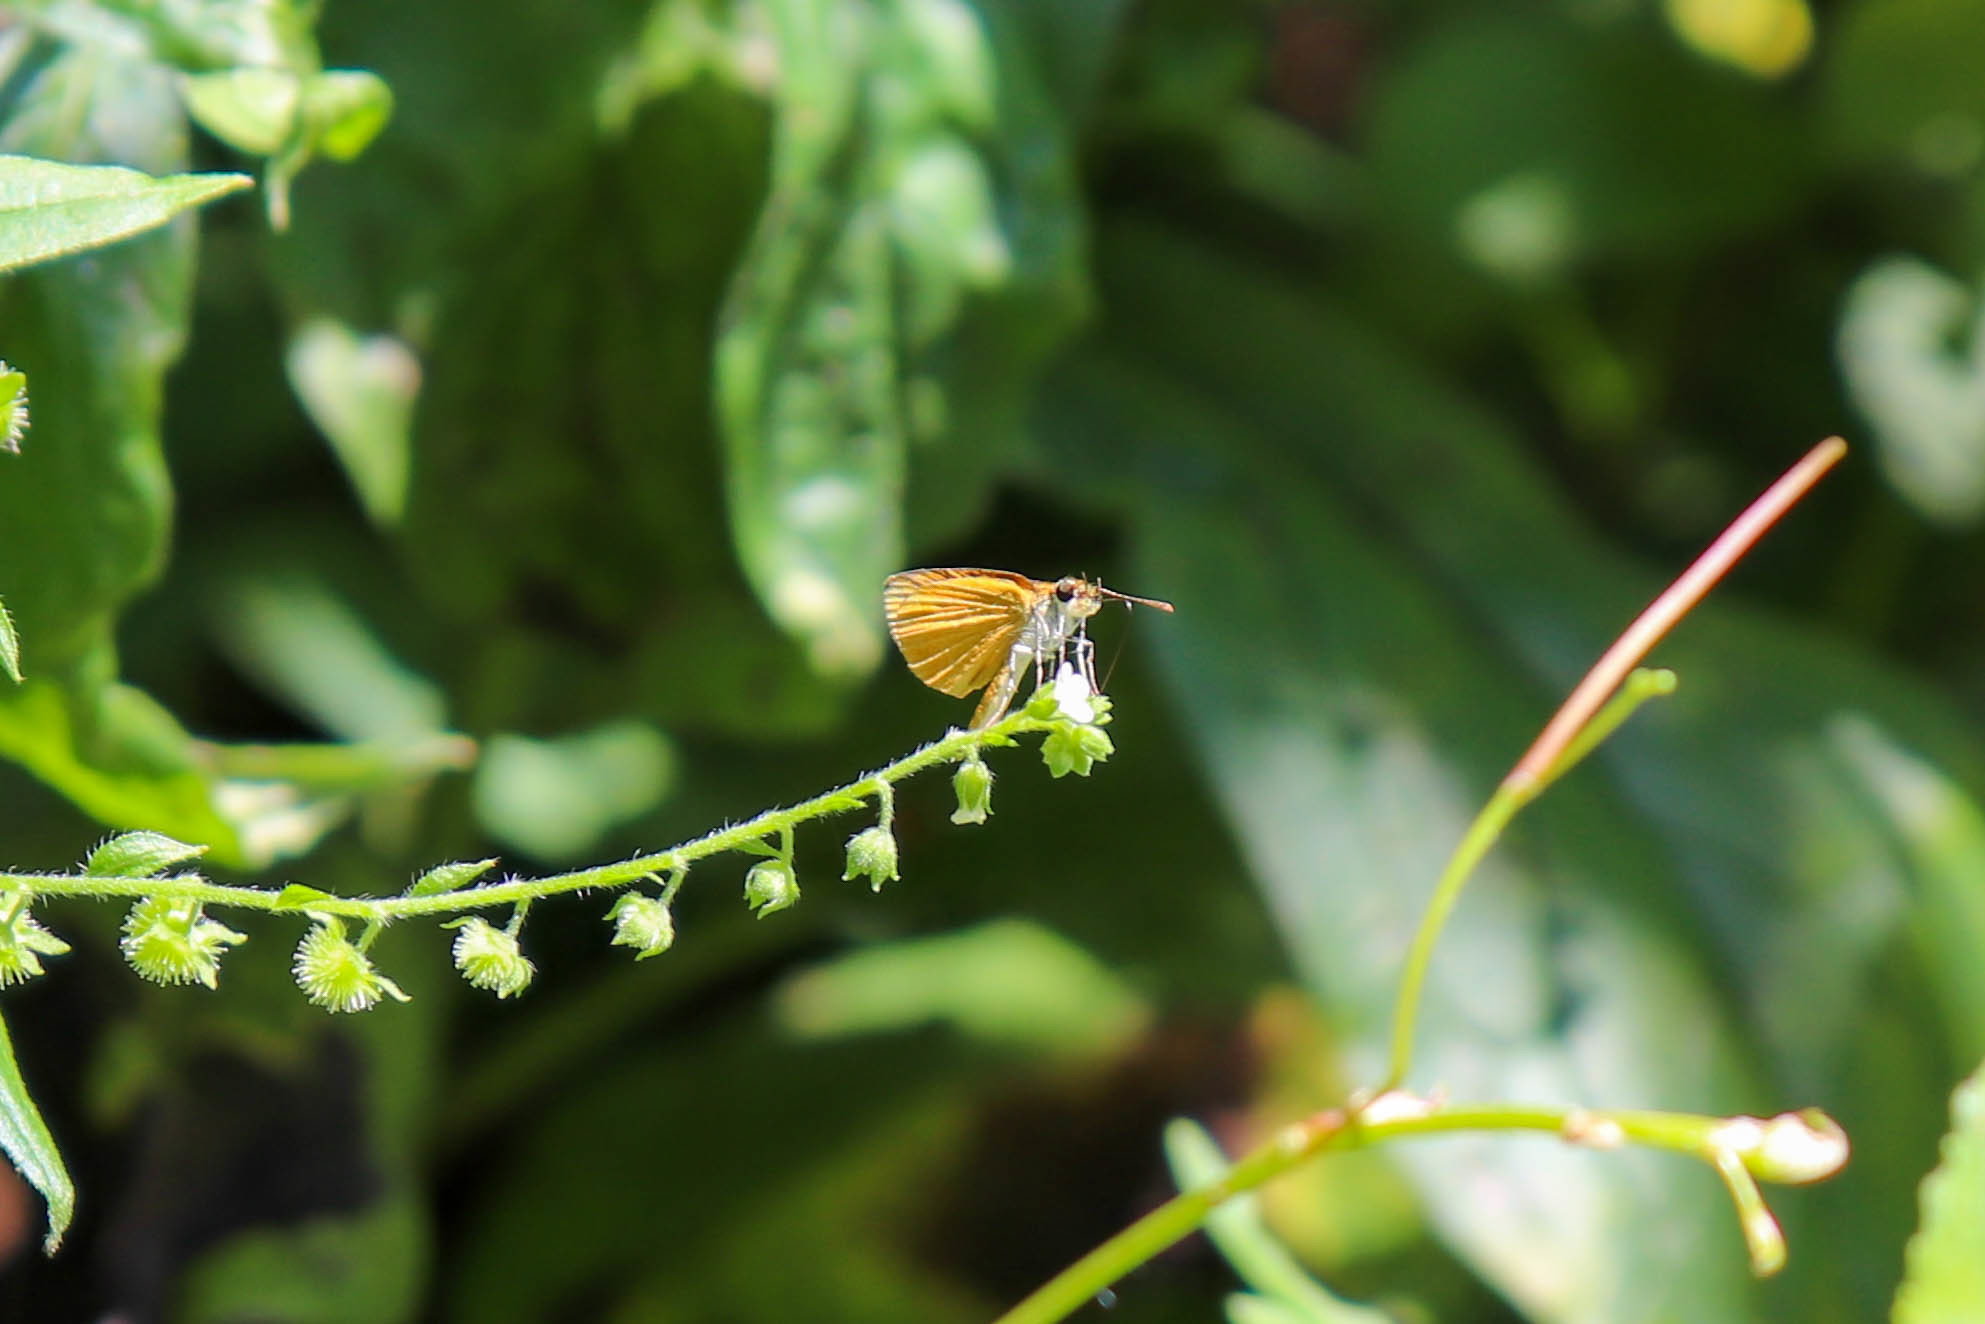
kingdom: Animalia
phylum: Arthropoda
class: Insecta
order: Lepidoptera
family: Hesperiidae
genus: Ancyloxypha
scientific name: Ancyloxypha numitor
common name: Least skipper
